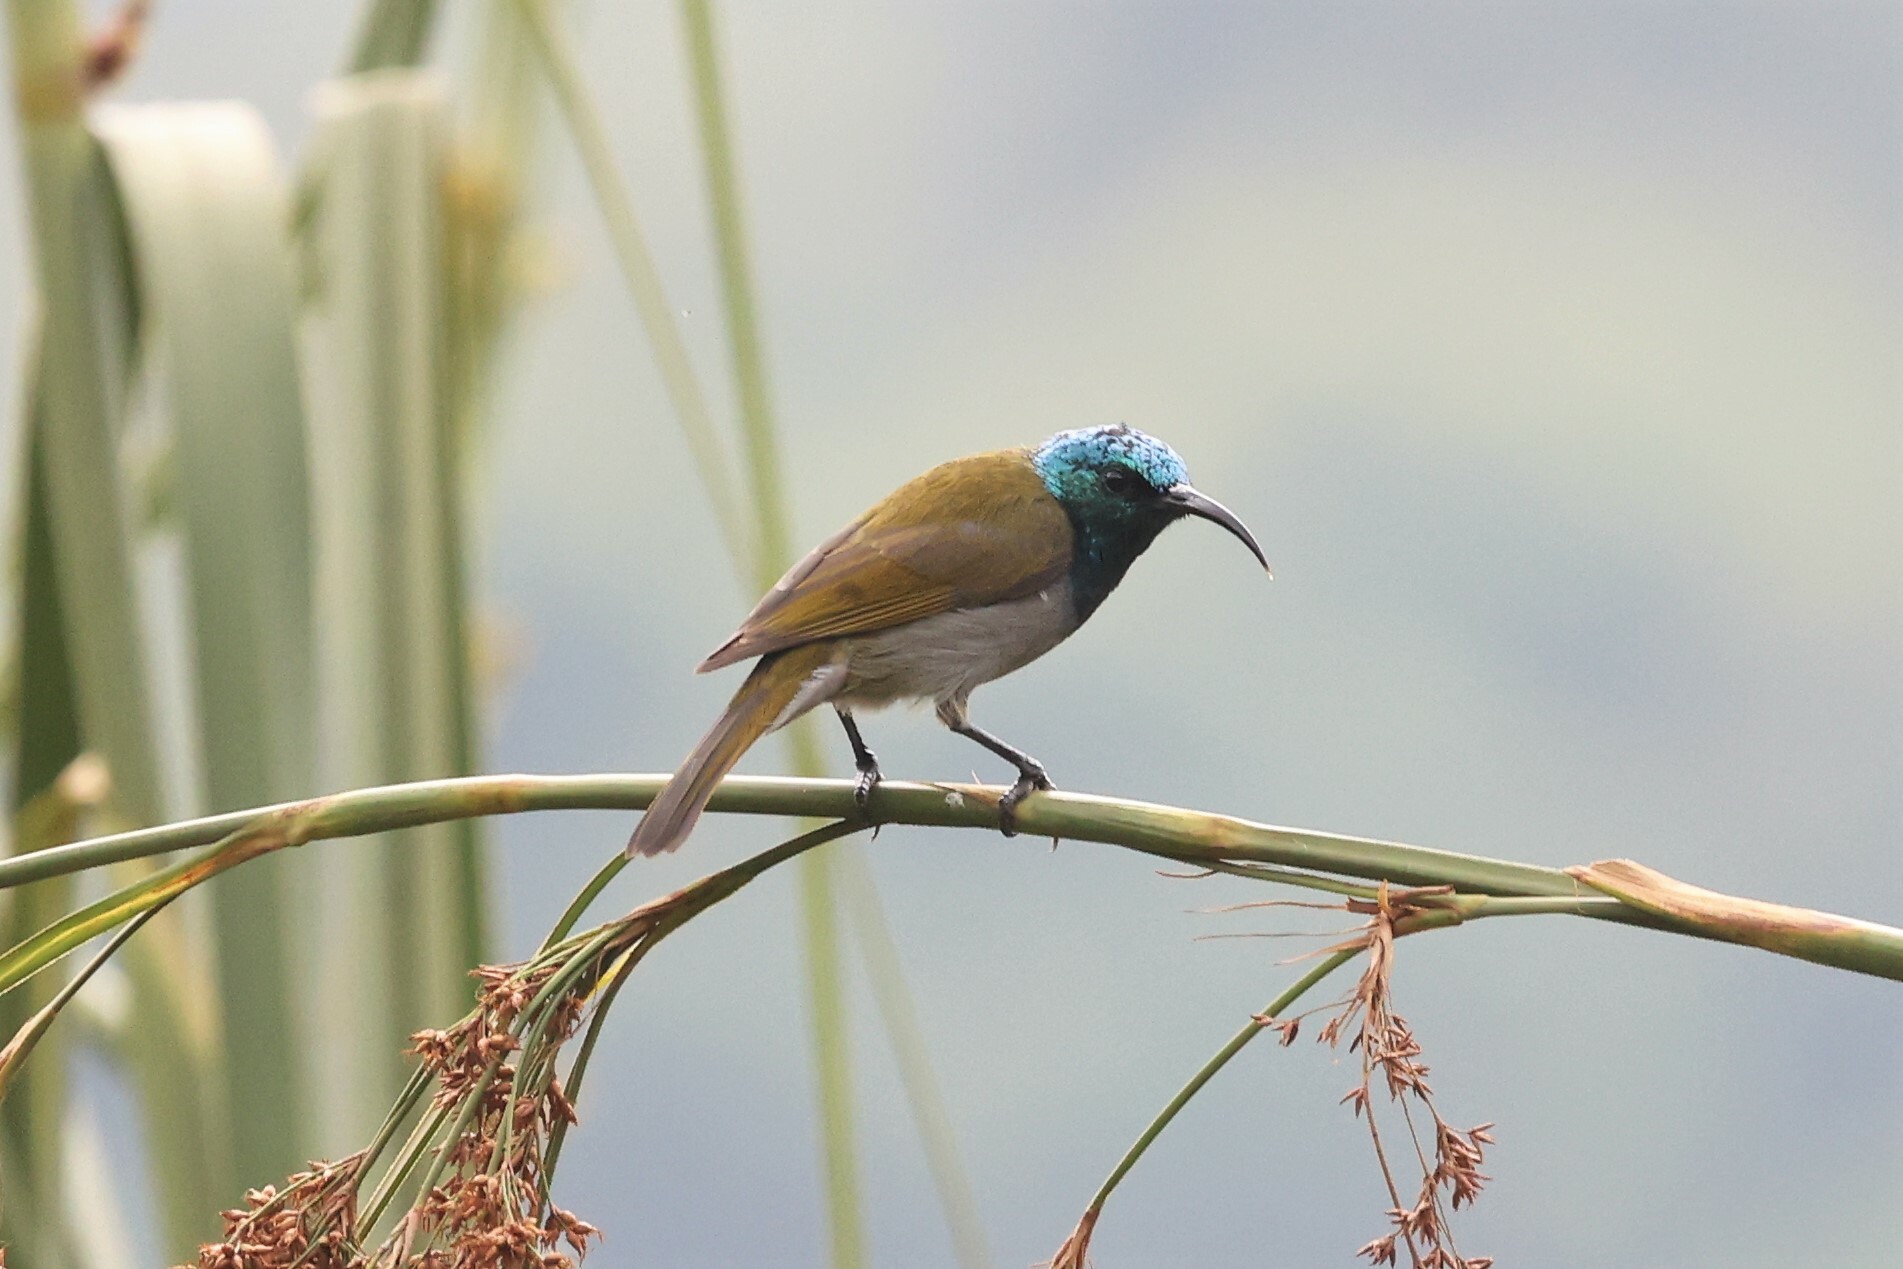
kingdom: Animalia
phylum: Chordata
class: Aves
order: Passeriformes
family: Nectariniidae
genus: Cyanomitra
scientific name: Cyanomitra verticalis
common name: Green-headed sunbird
